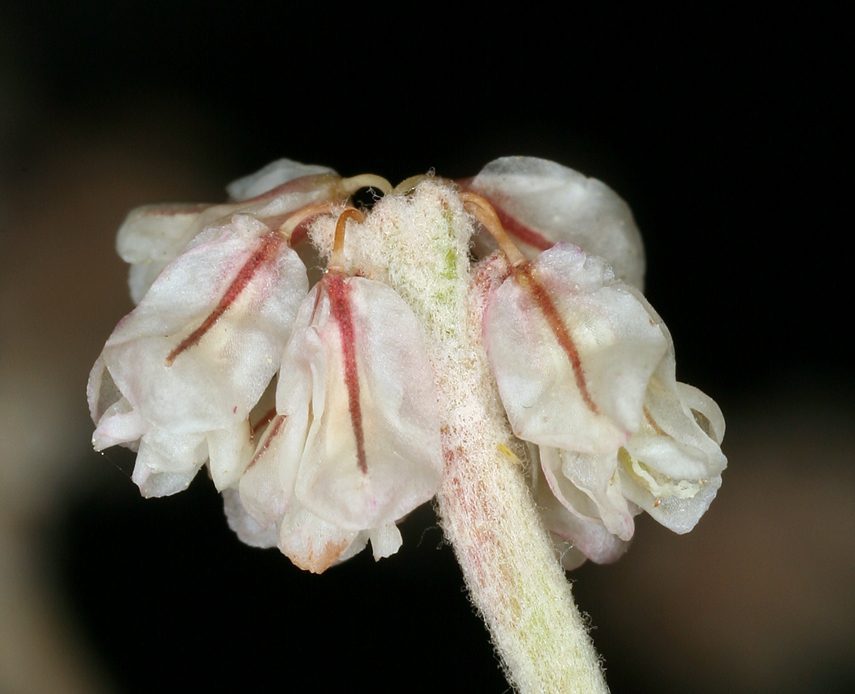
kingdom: Plantae
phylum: Tracheophyta
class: Magnoliopsida
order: Caryophyllales
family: Polygonaceae
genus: Eriogonum
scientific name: Eriogonum baileyi
